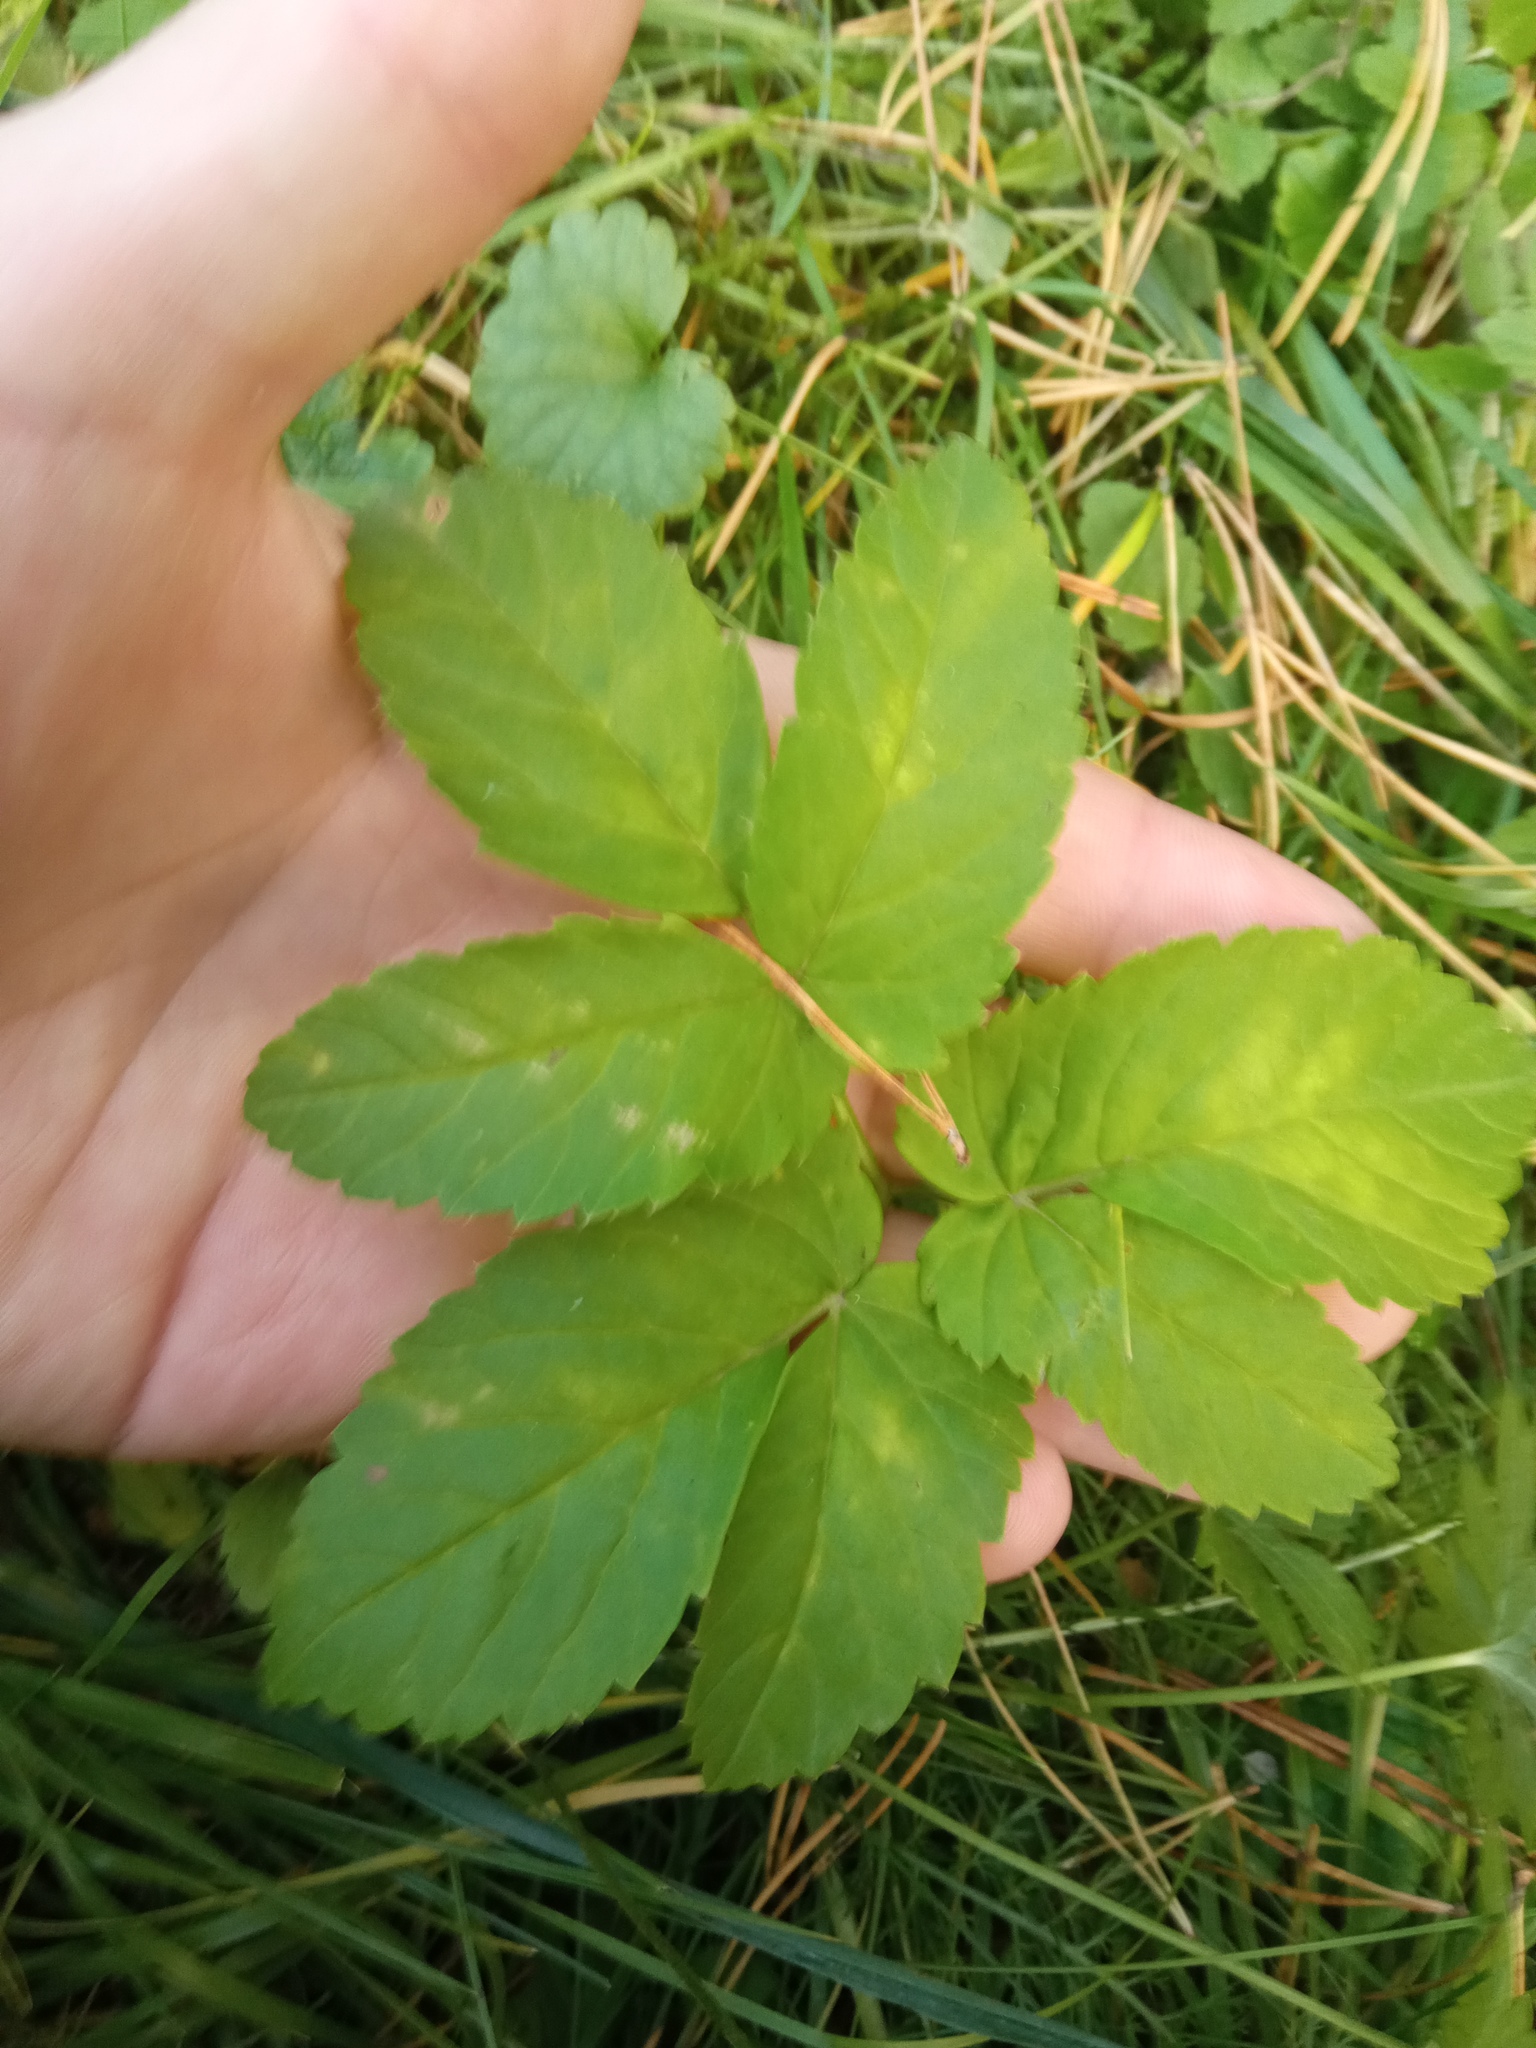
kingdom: Plantae
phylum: Tracheophyta
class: Magnoliopsida
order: Apiales
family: Apiaceae
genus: Aegopodium
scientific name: Aegopodium podagraria
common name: Ground-elder
